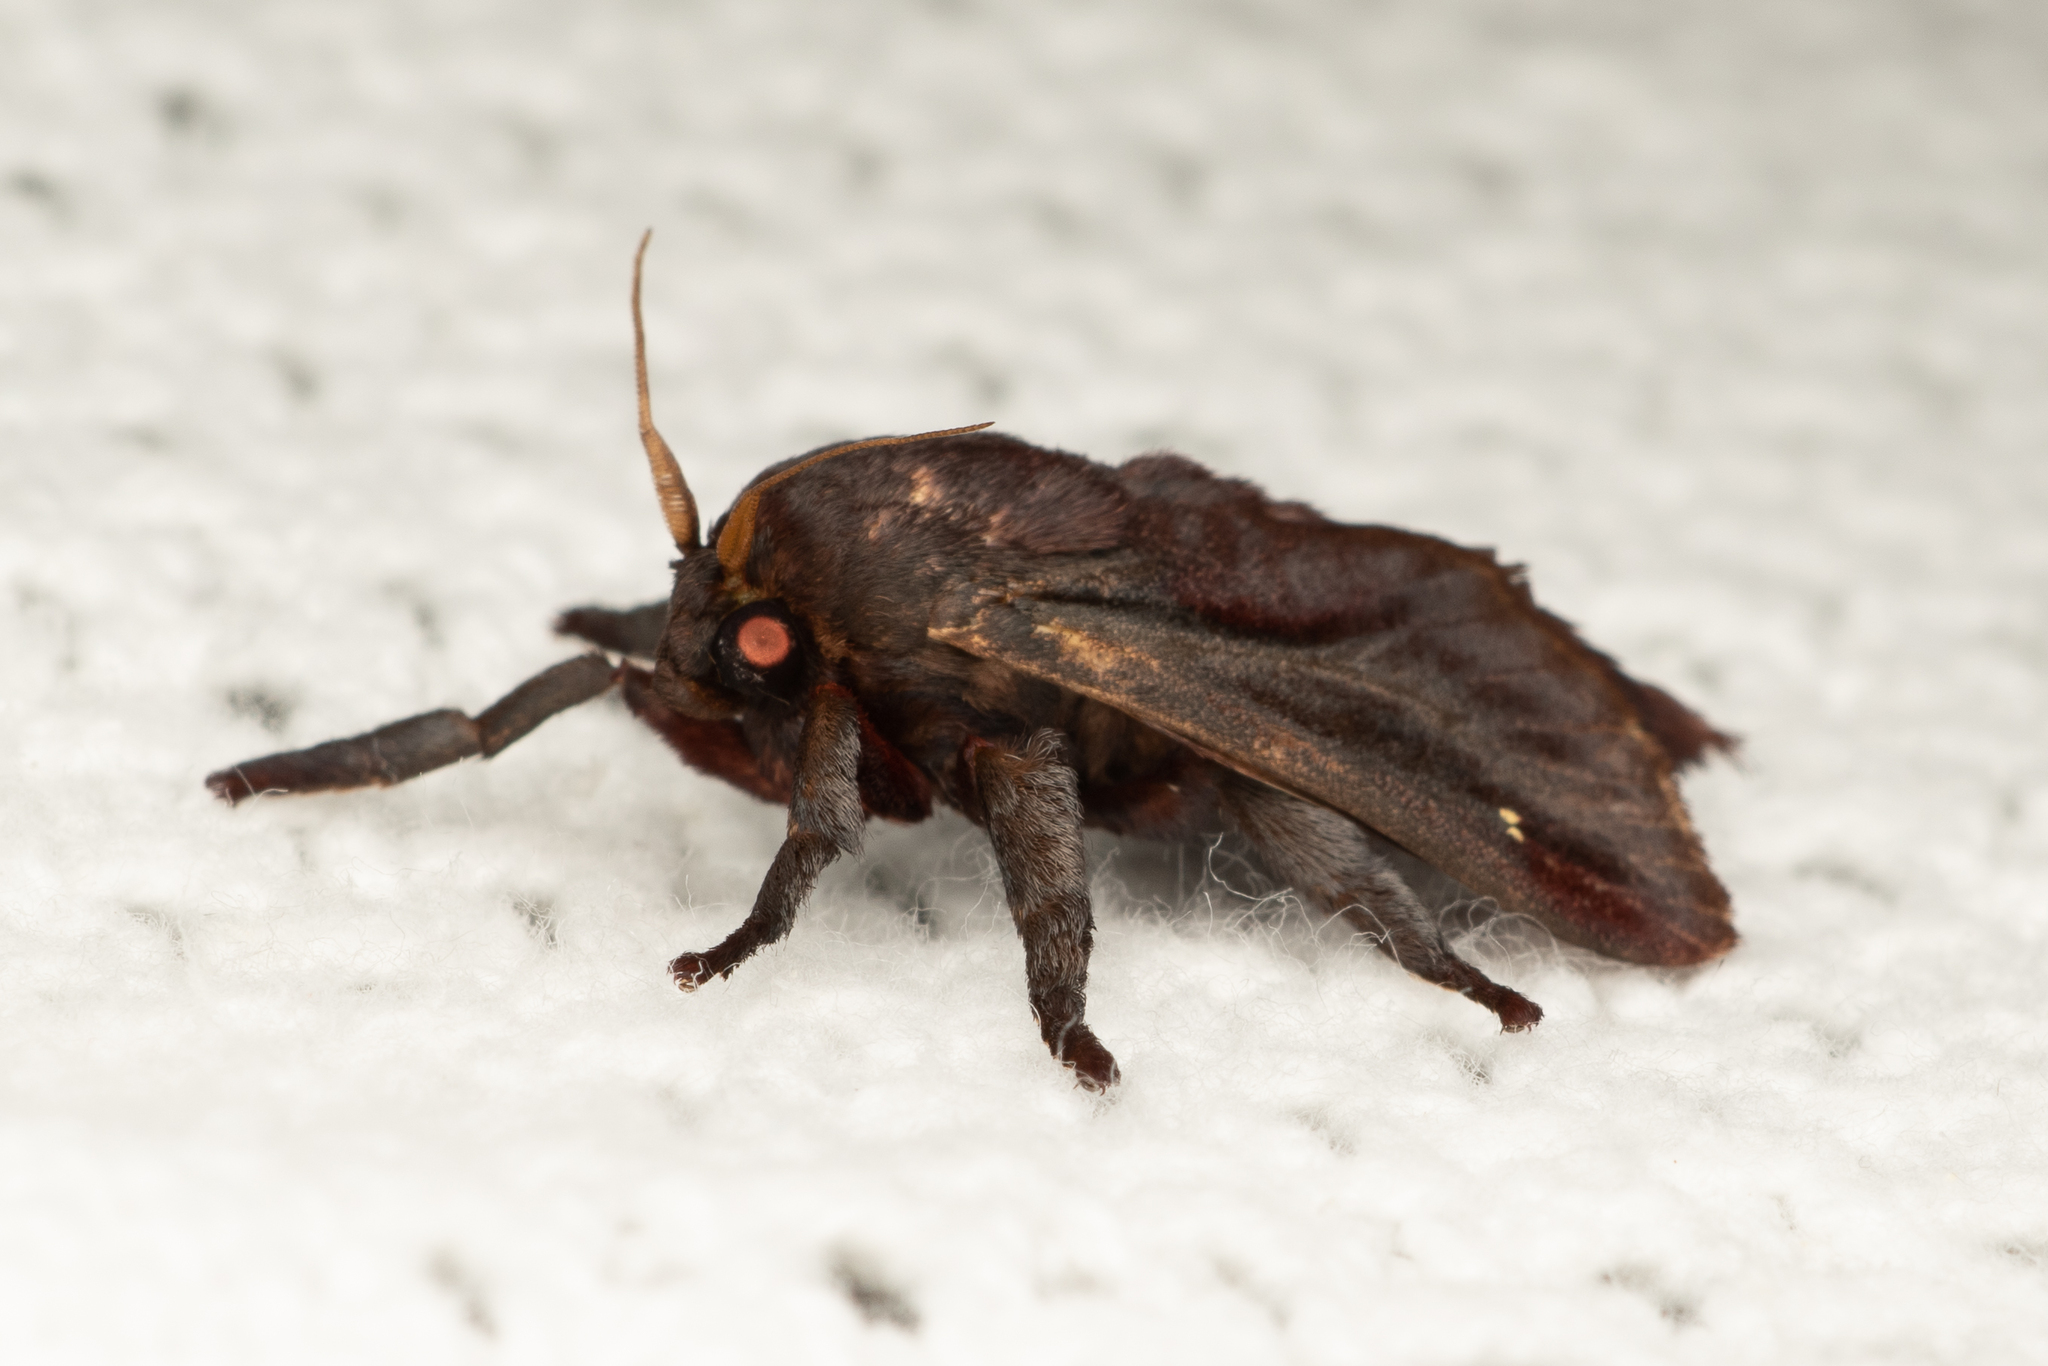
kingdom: Animalia
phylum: Arthropoda
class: Insecta
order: Lepidoptera
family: Limacodidae
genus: Sibine
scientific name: Sibine horrida
